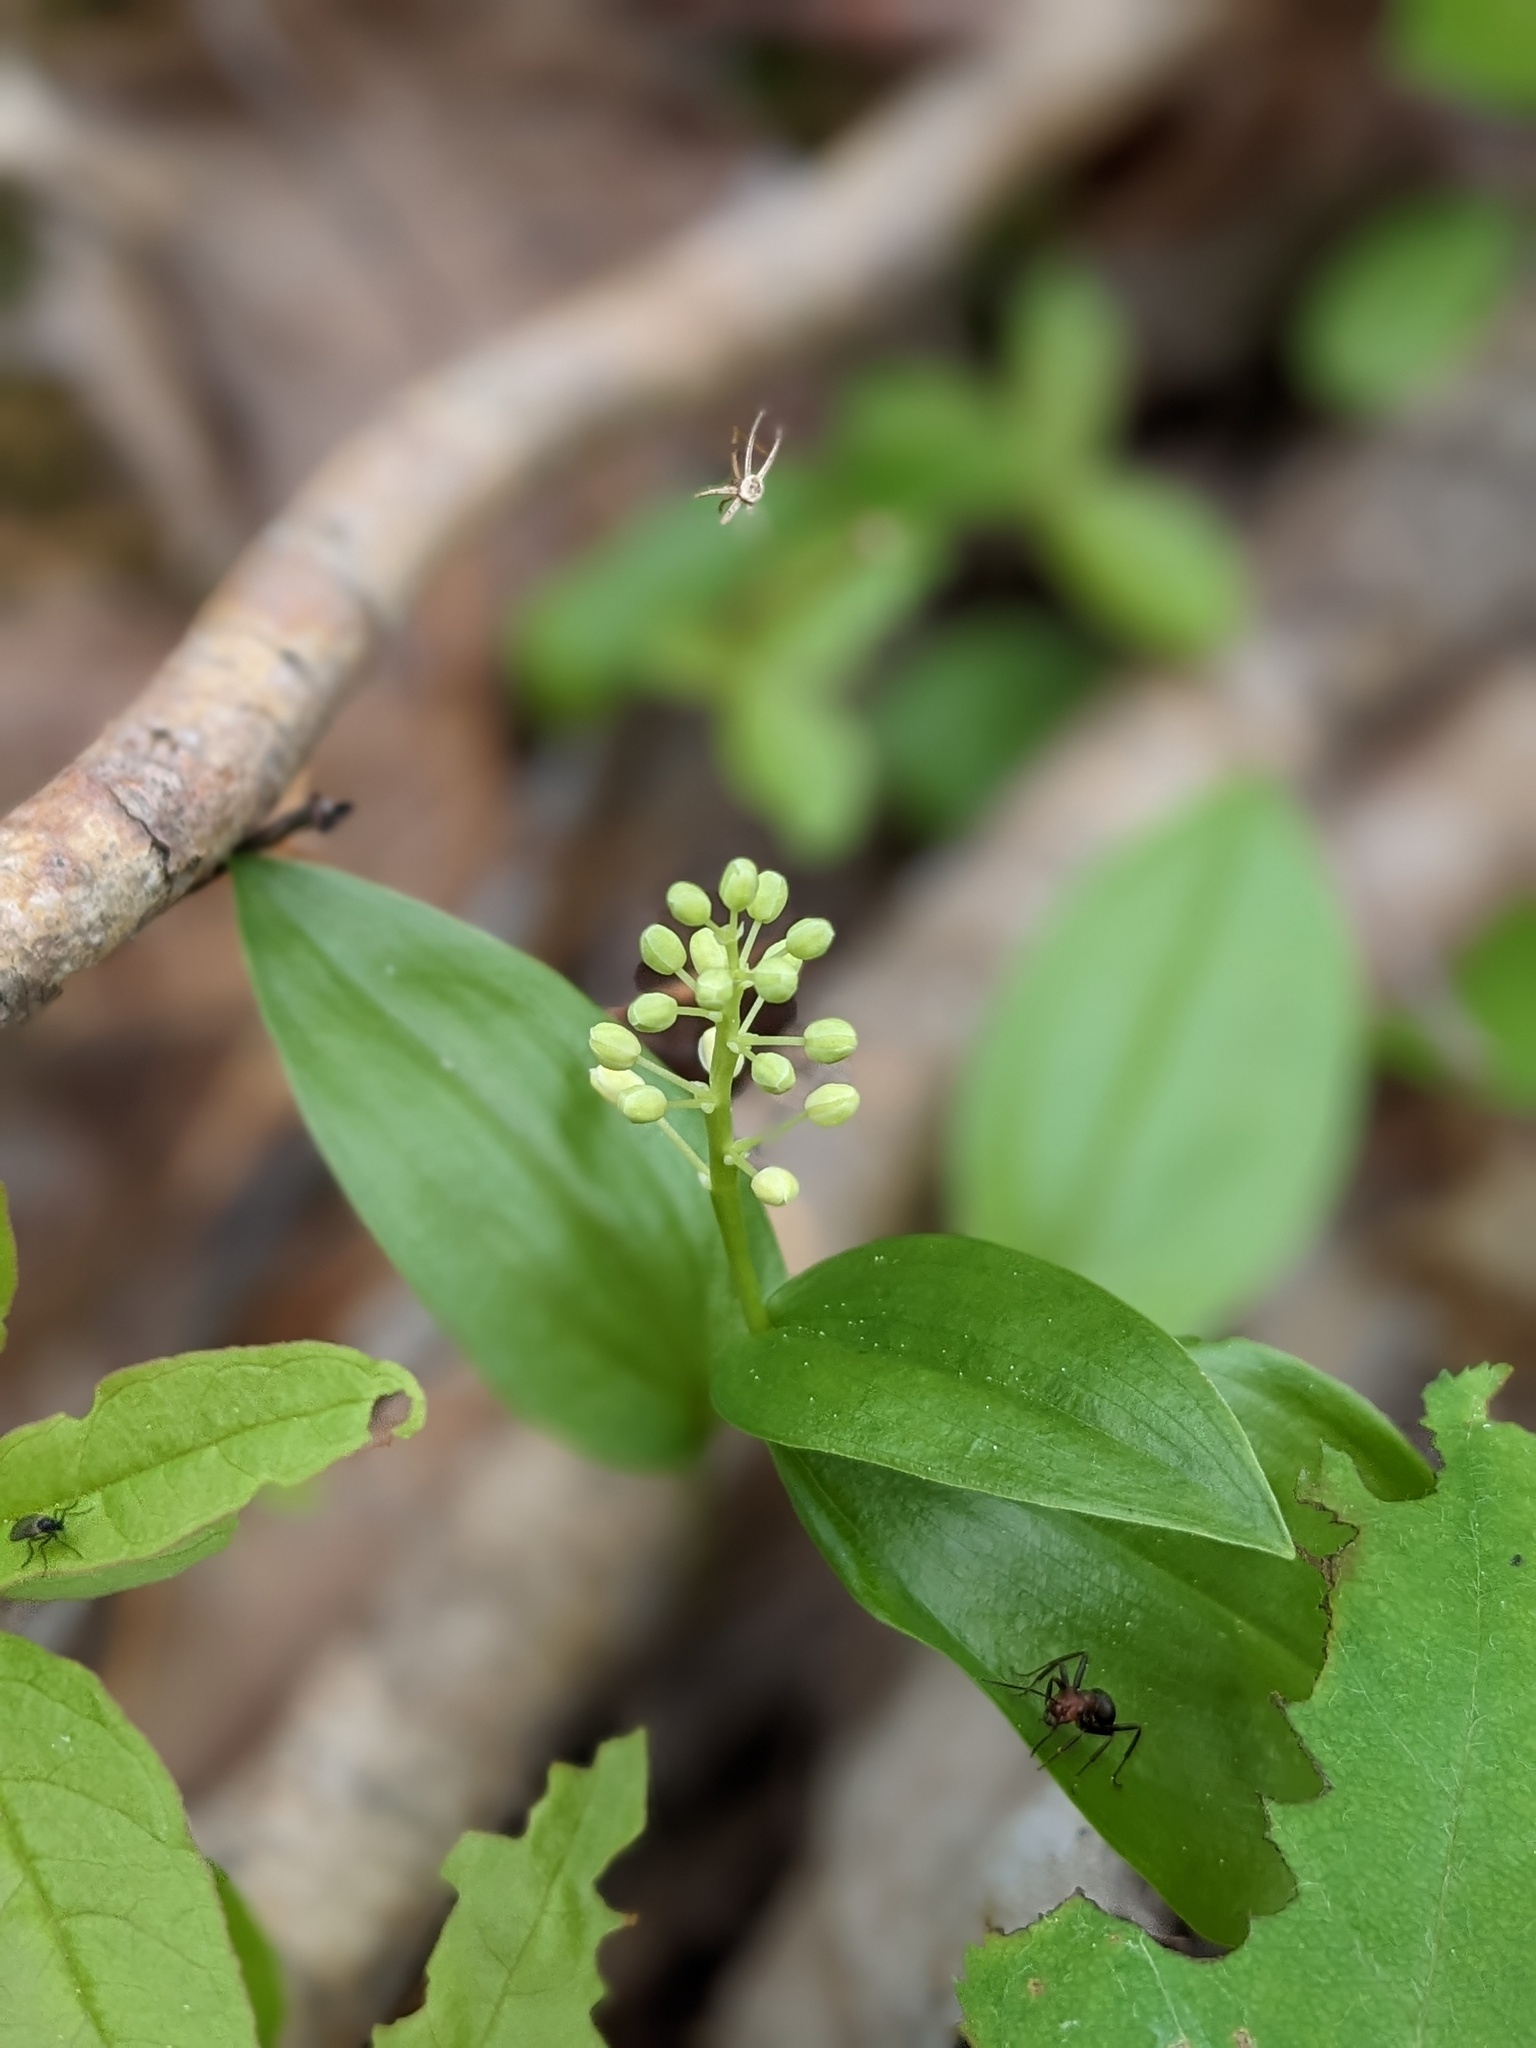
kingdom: Plantae
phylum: Tracheophyta
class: Liliopsida
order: Asparagales
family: Asparagaceae
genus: Maianthemum
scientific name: Maianthemum canadense
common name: False lily-of-the-valley
